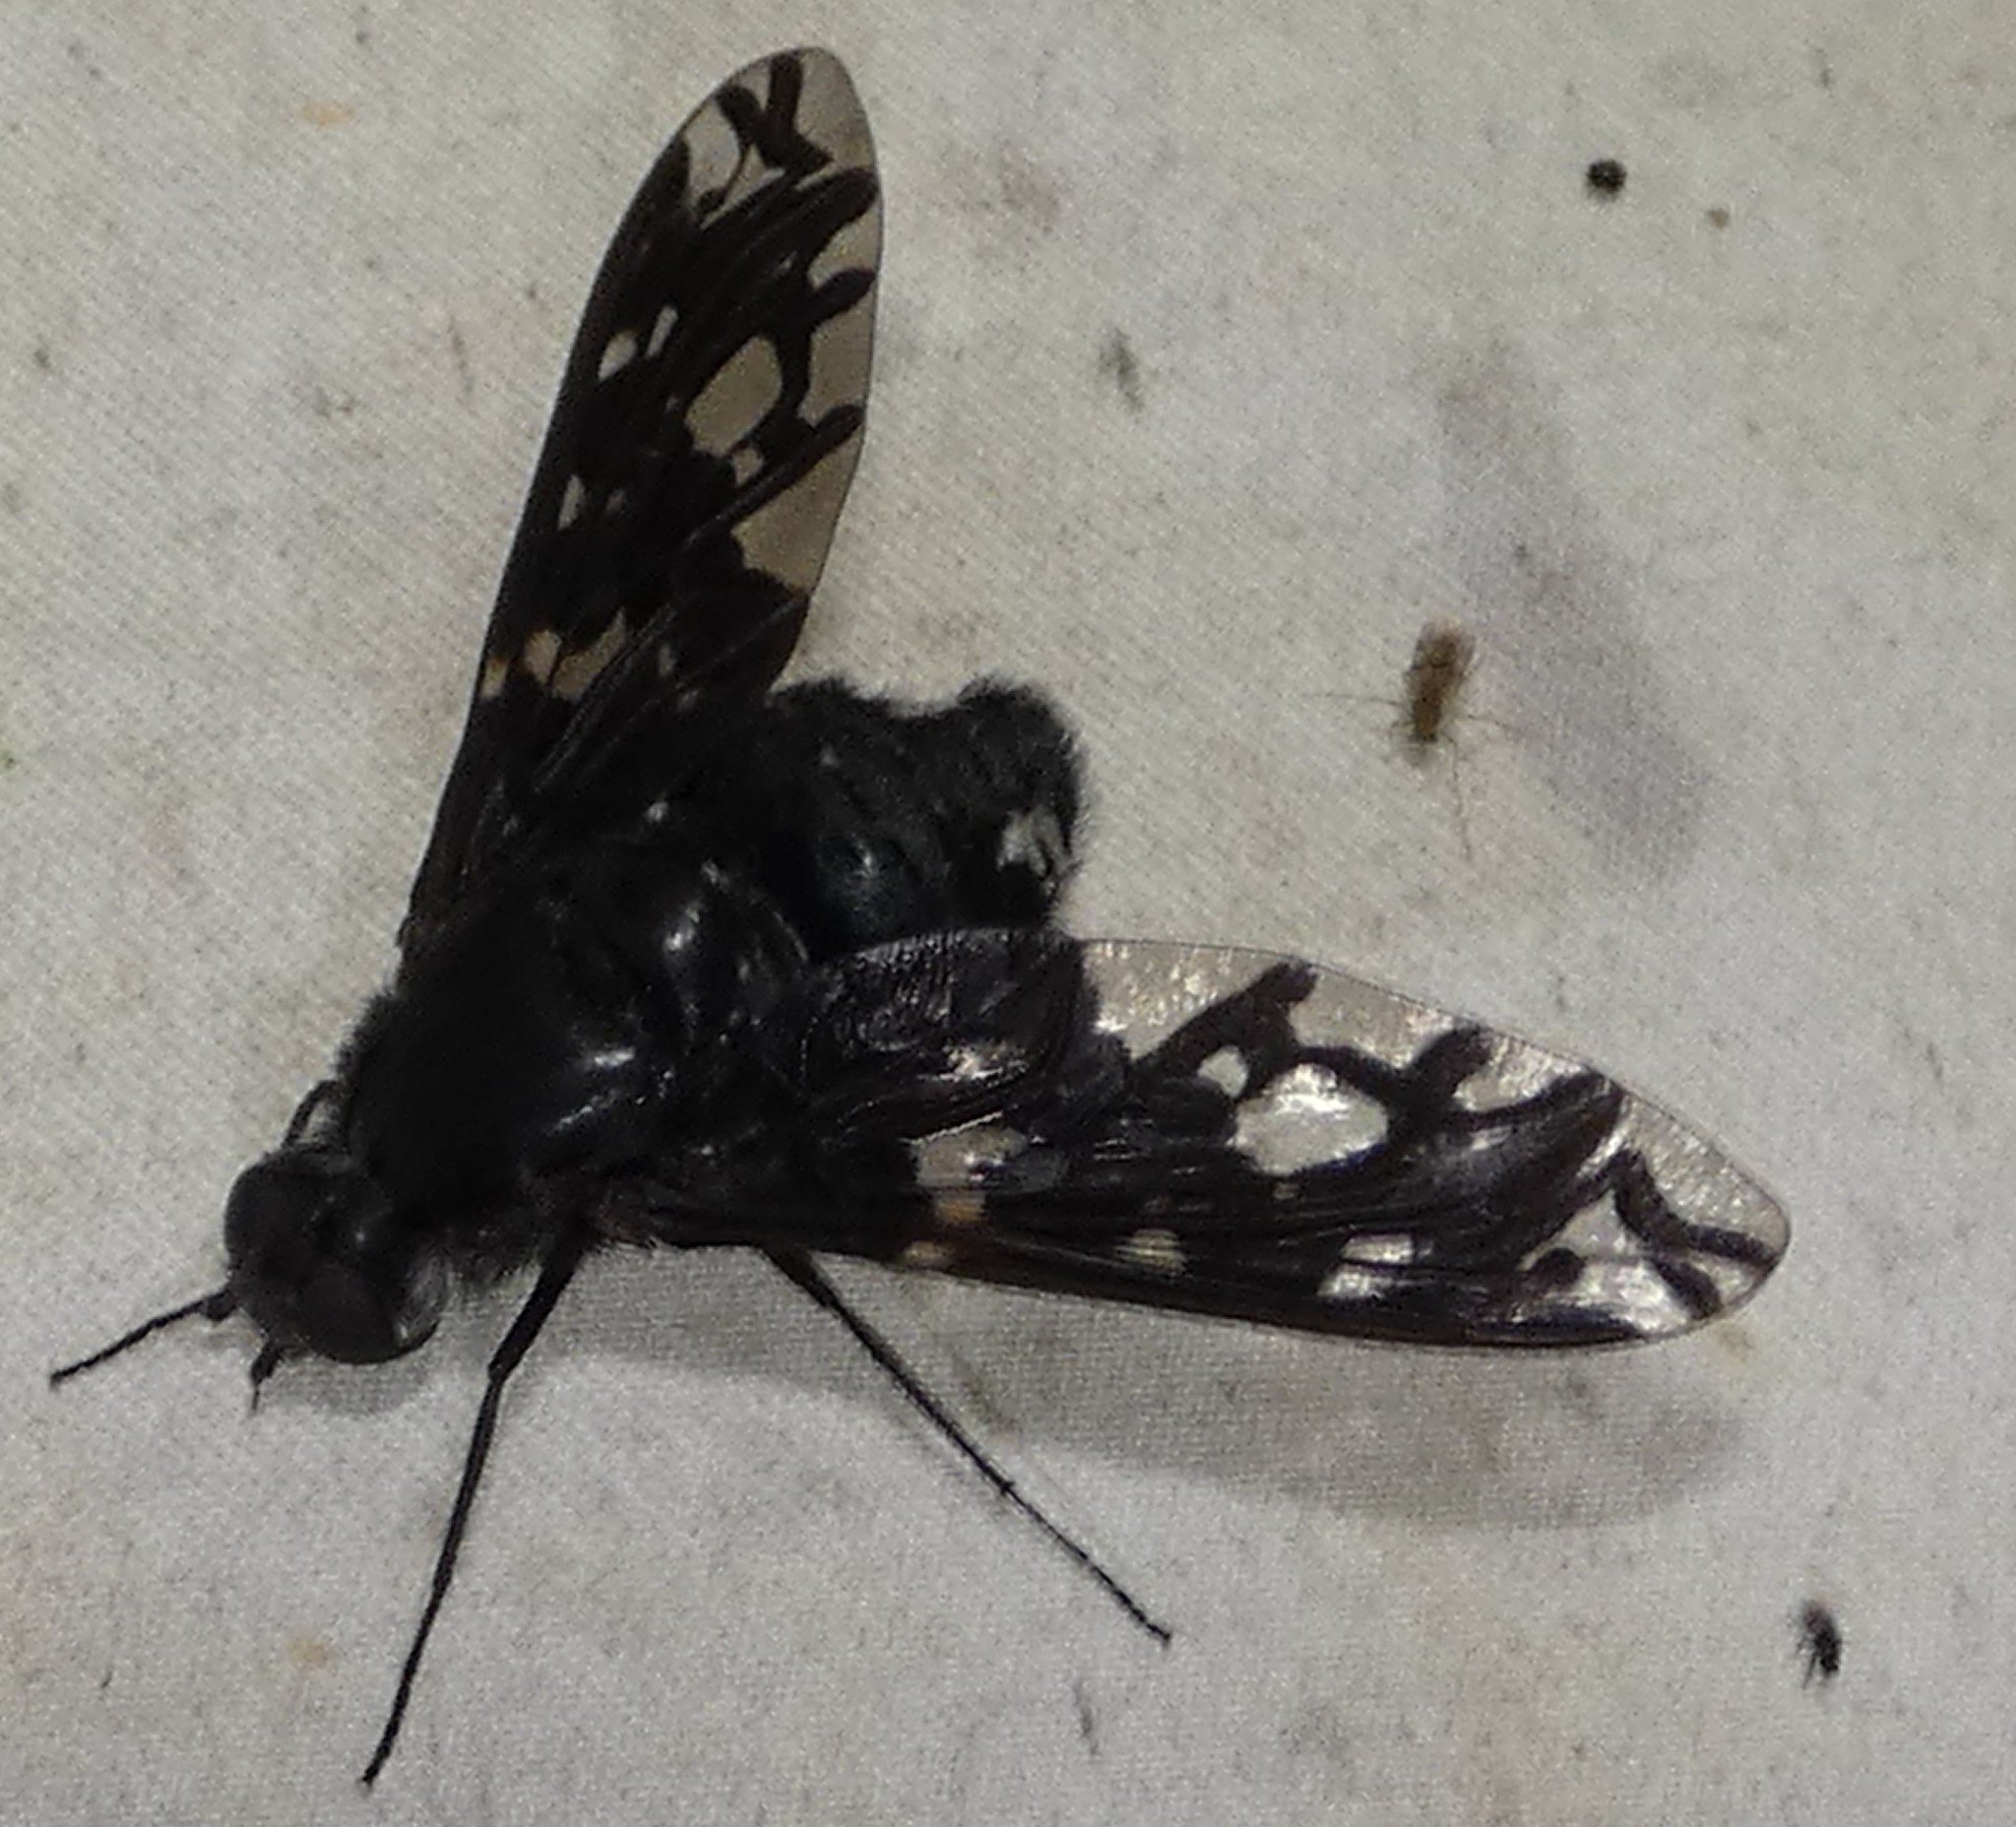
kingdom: Animalia
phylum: Arthropoda
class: Insecta
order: Diptera
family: Bombyliidae
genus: Xenox
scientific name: Xenox tigrinus
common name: Tiger bee fly
